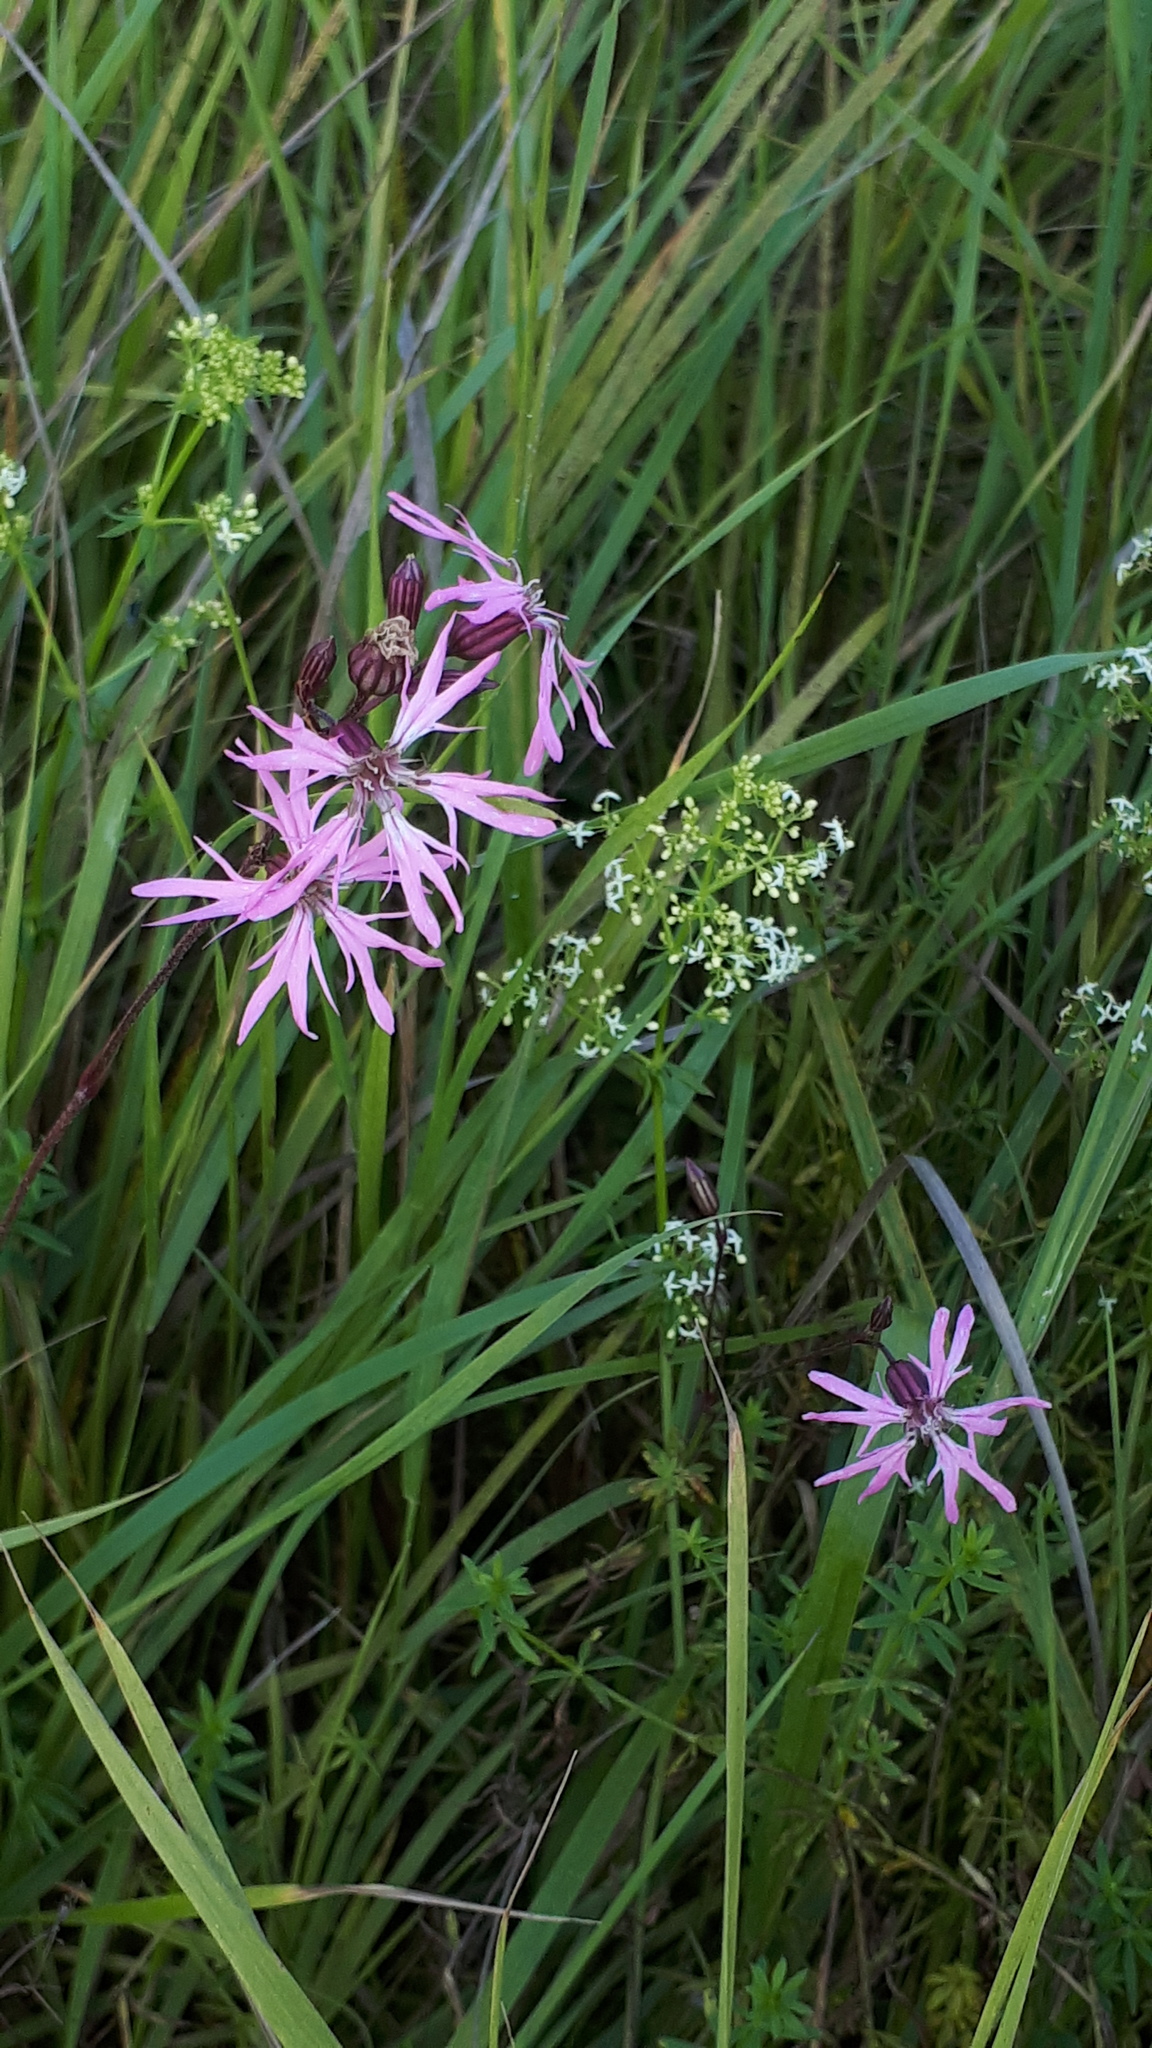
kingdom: Plantae
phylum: Tracheophyta
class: Magnoliopsida
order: Caryophyllales
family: Caryophyllaceae
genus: Silene
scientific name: Silene flos-cuculi
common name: Ragged-robin
